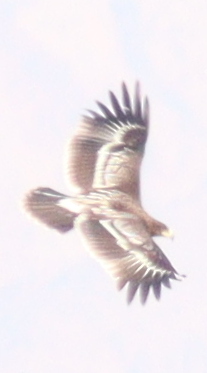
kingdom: Animalia
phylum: Chordata
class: Aves
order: Accipitriformes
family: Accipitridae
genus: Aquila
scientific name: Aquila clanga
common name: Greater spotted eagle
